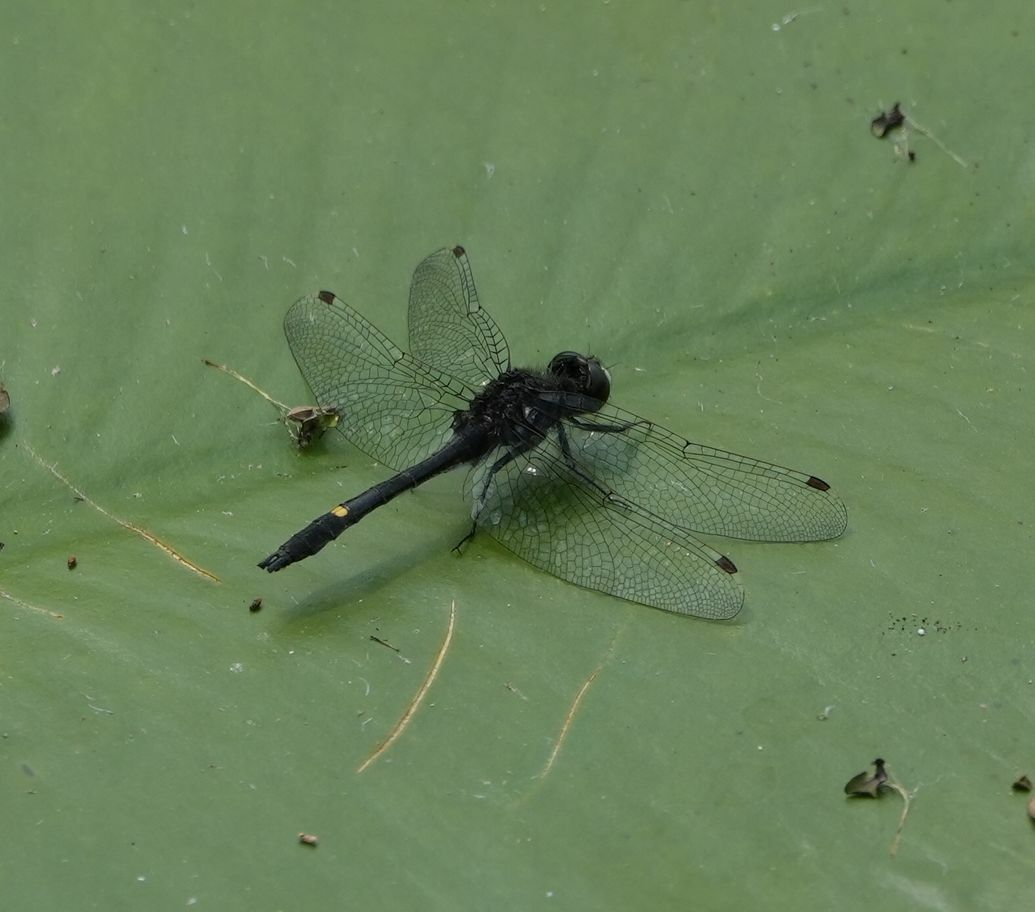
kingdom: Animalia
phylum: Arthropoda
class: Insecta
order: Odonata
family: Libellulidae
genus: Leucorrhinia
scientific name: Leucorrhinia intacta
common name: Dot-tailed whiteface
